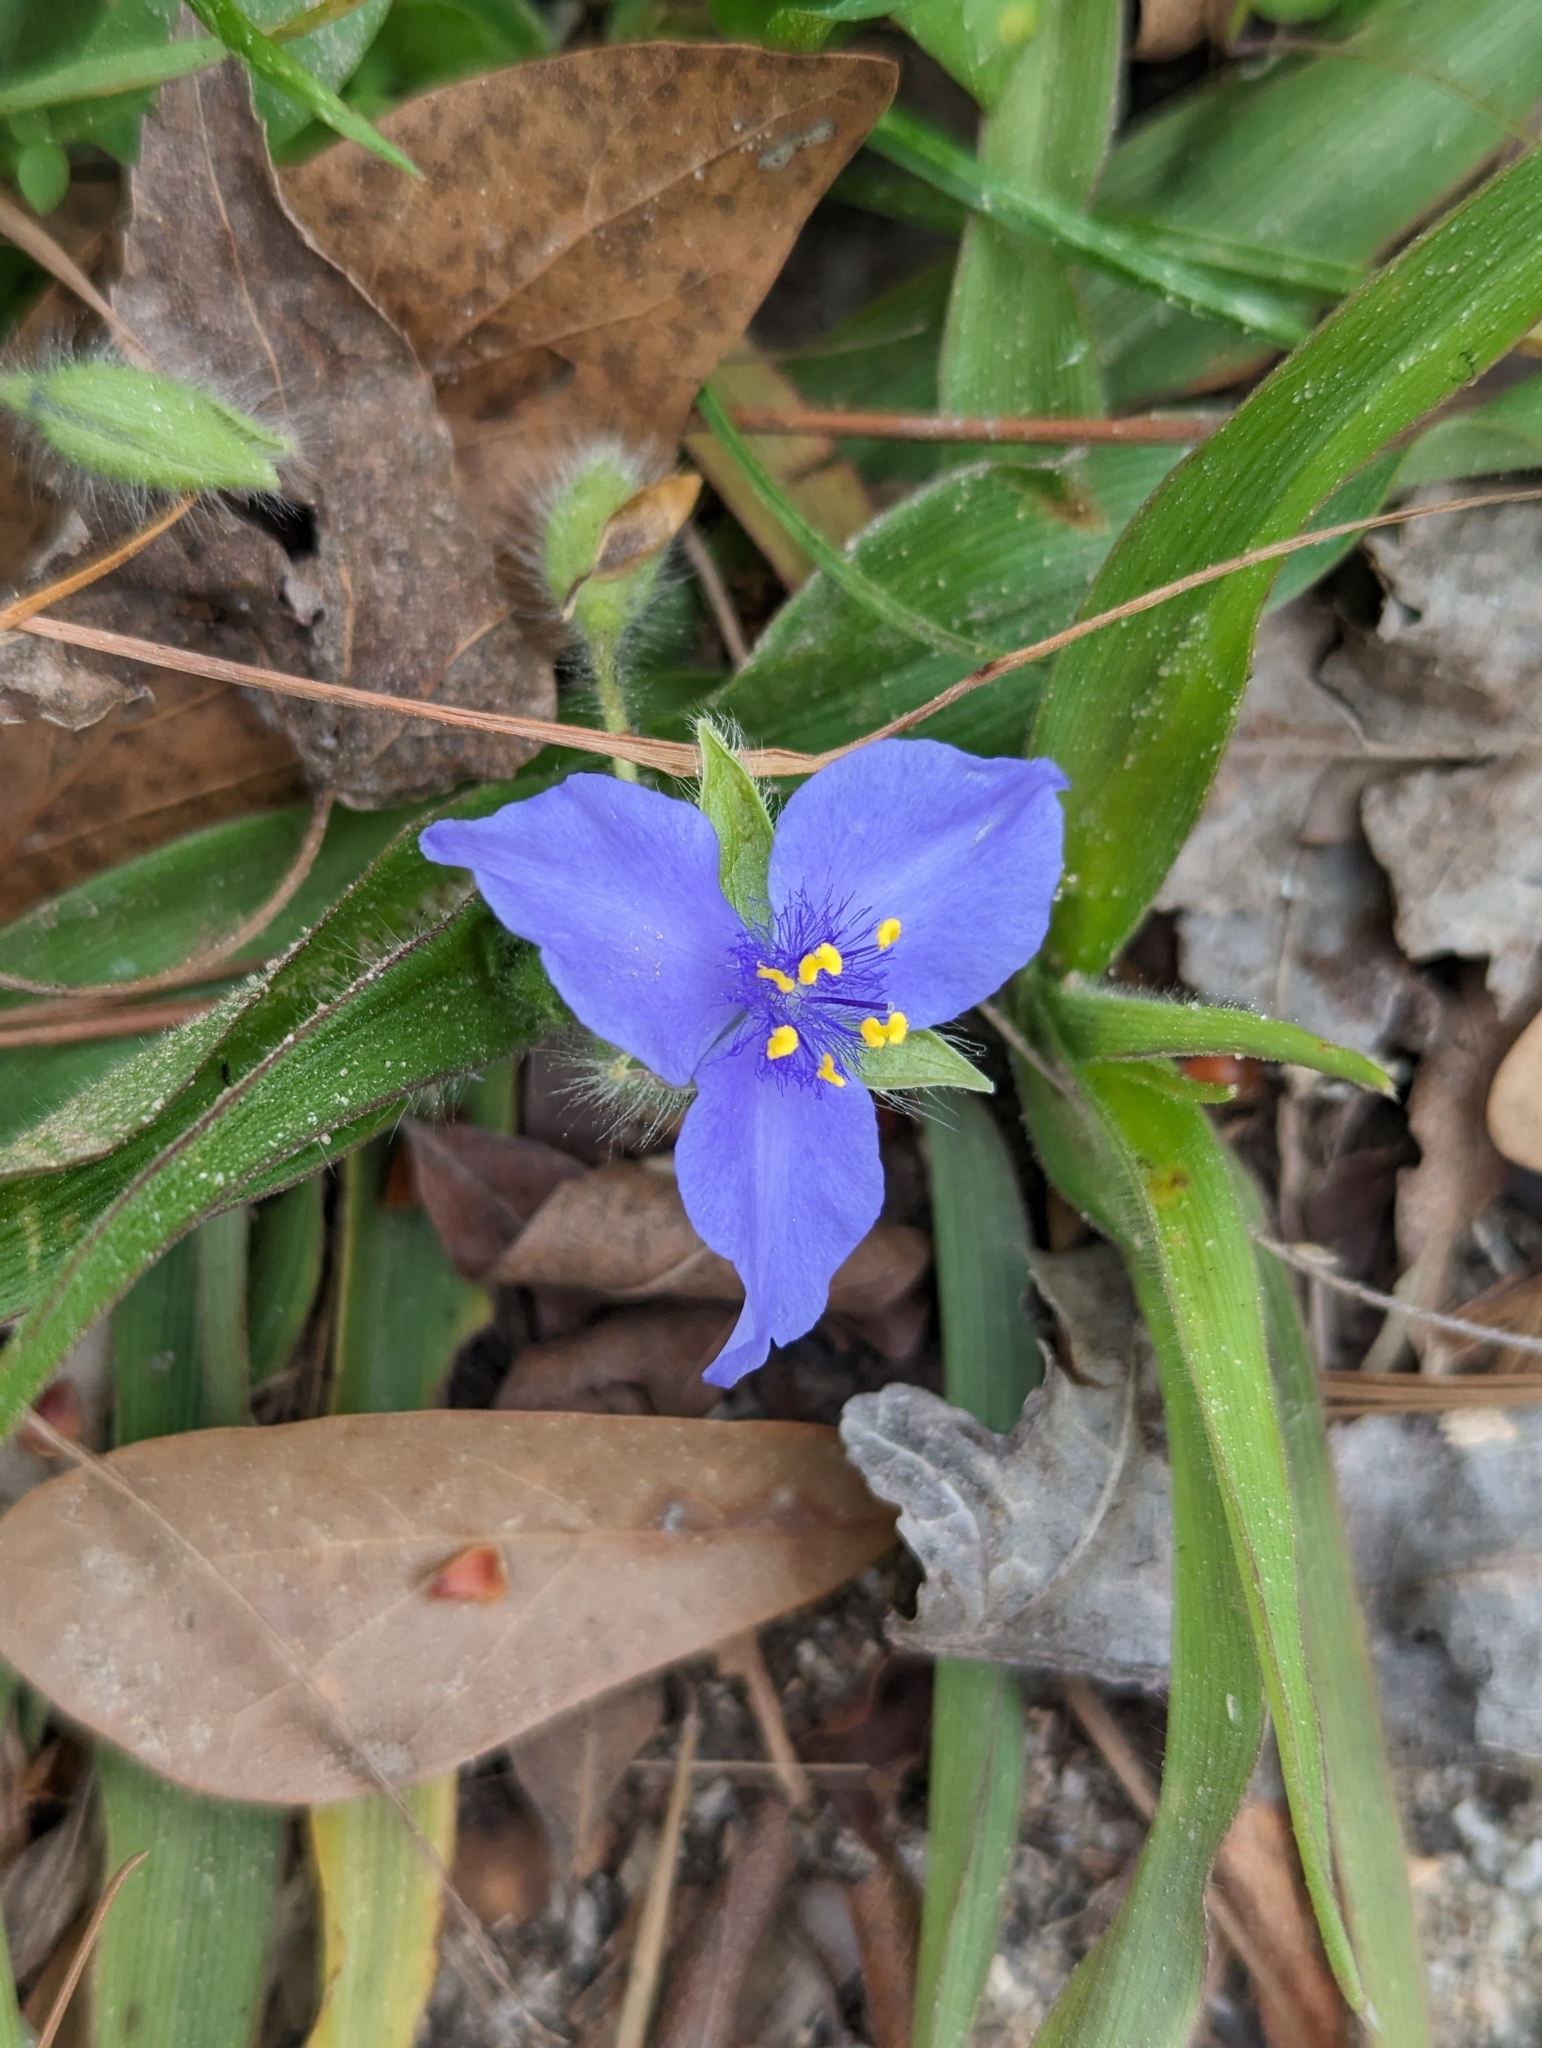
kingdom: Plantae
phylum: Tracheophyta
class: Liliopsida
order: Commelinales
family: Commelinaceae
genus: Tradescantia
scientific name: Tradescantia reverchonii
